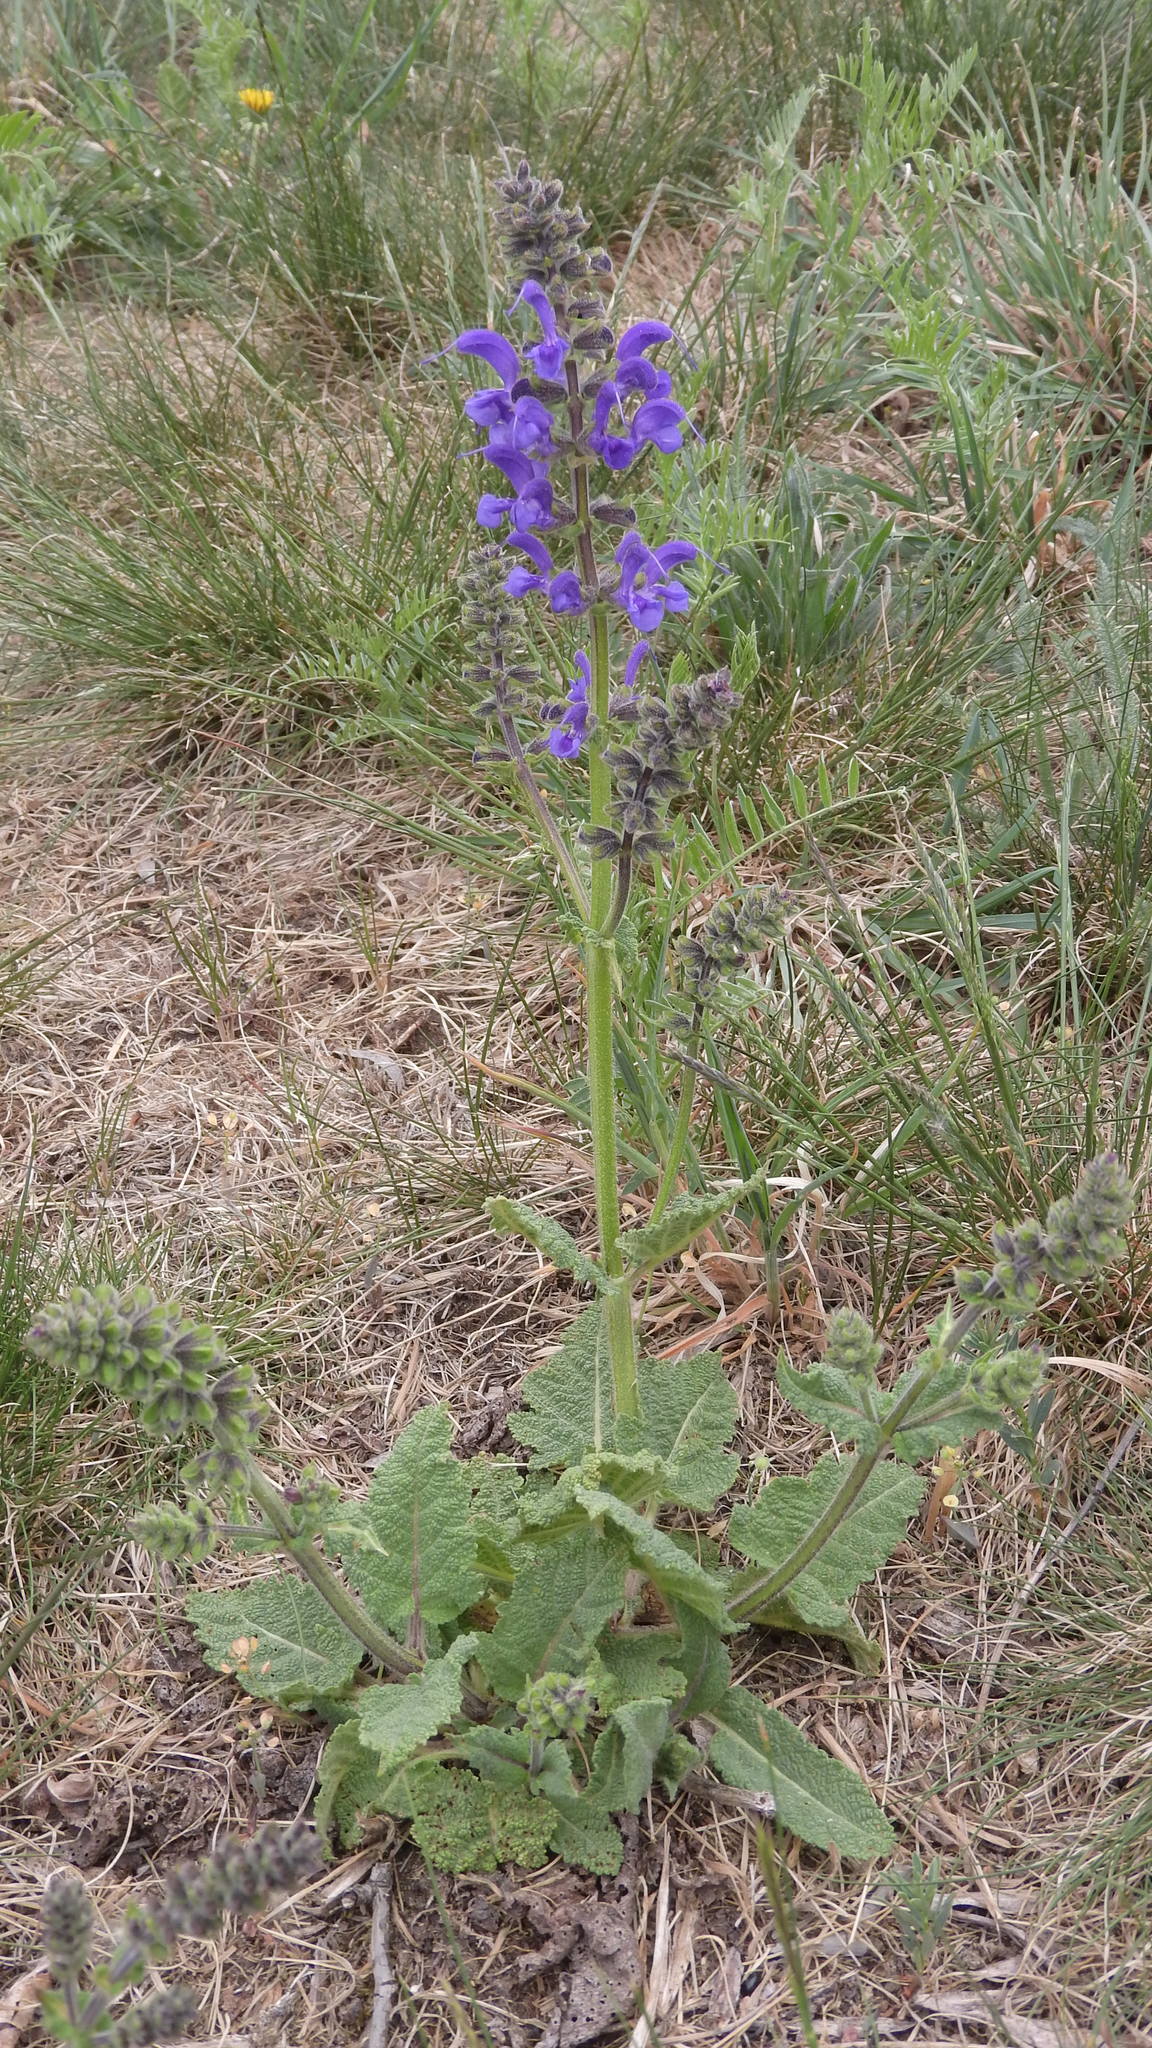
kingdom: Plantae
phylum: Tracheophyta
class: Magnoliopsida
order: Lamiales
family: Lamiaceae
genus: Salvia
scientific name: Salvia pratensis
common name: Meadow sage
